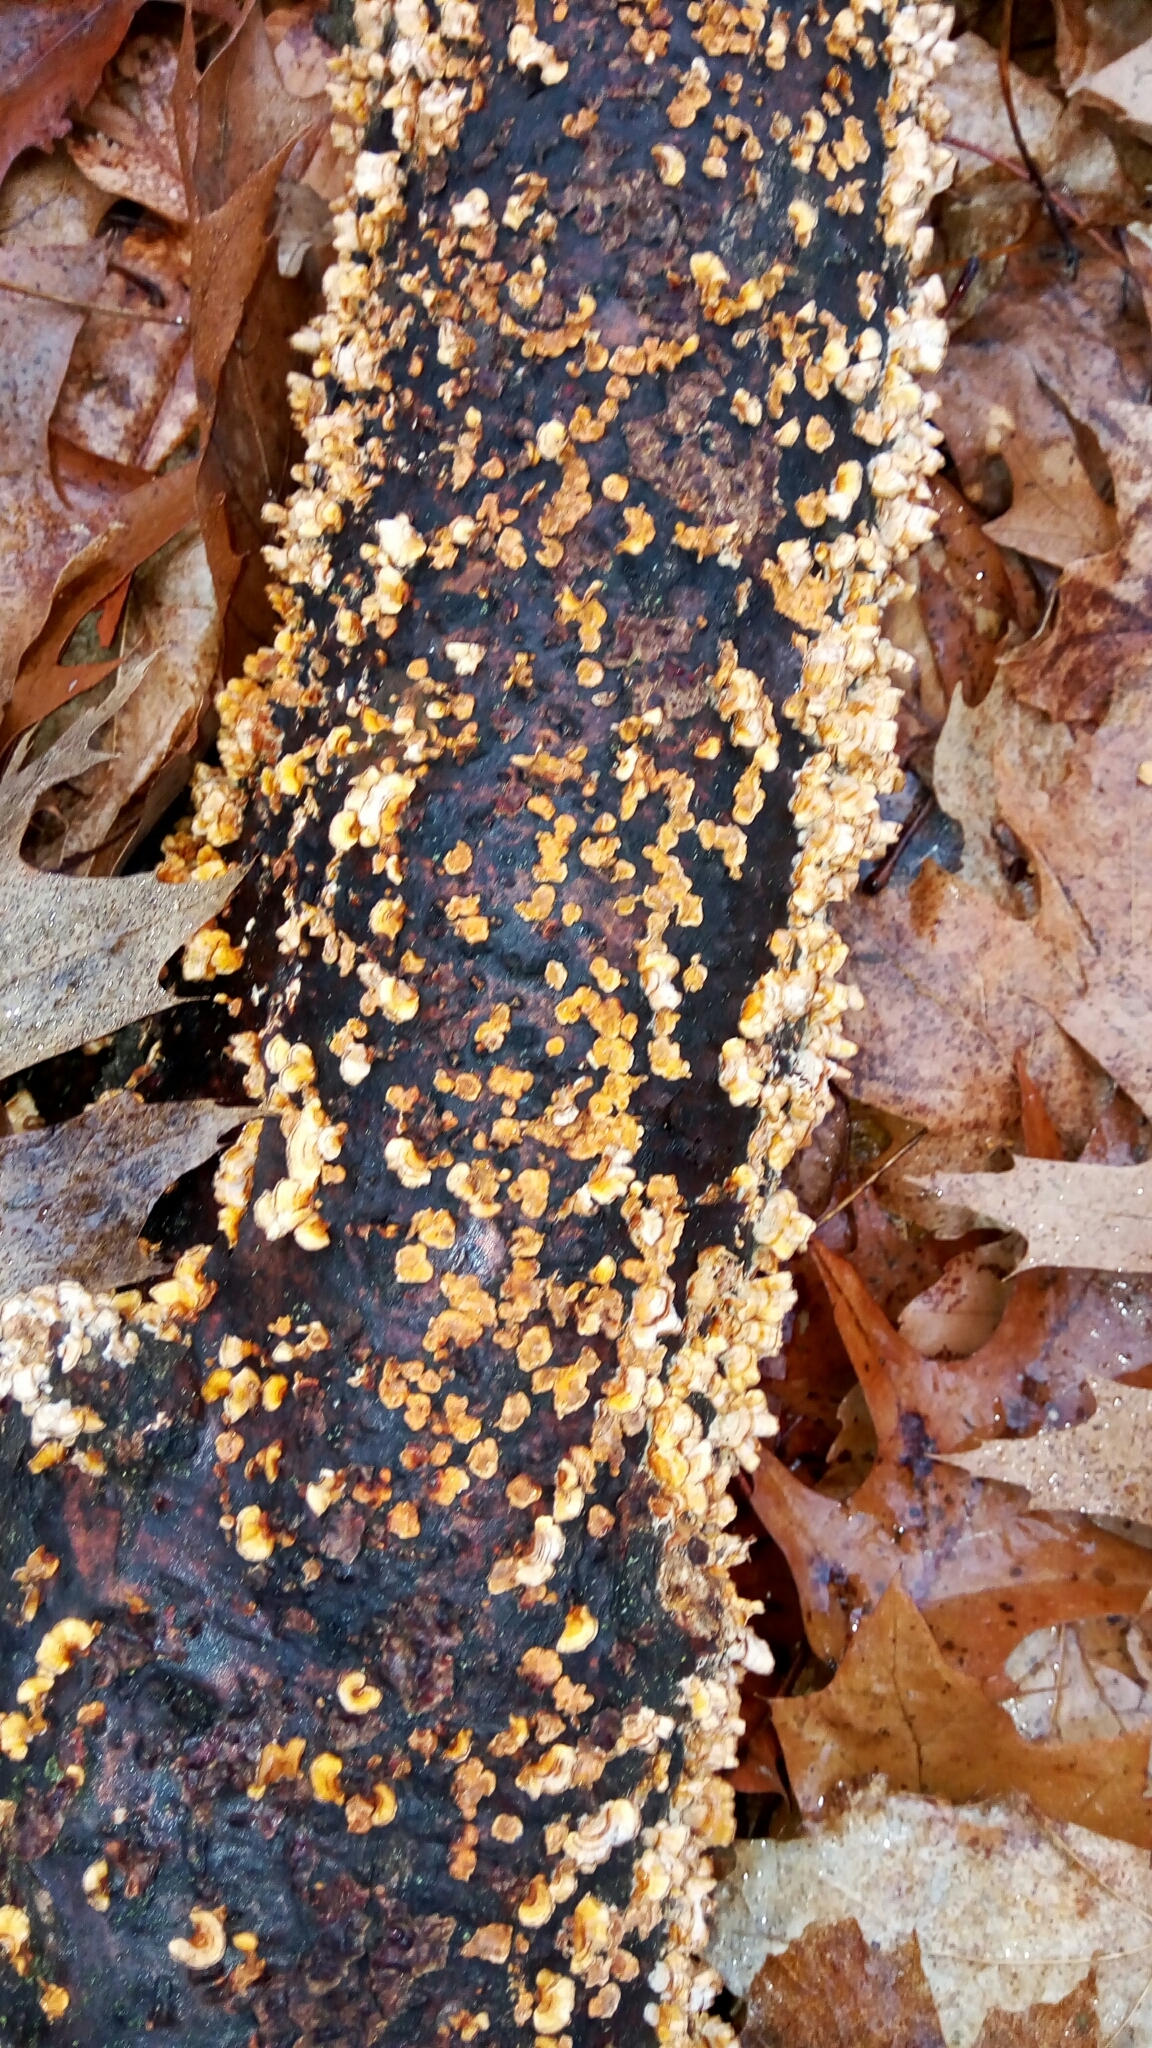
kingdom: Fungi
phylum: Basidiomycota
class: Agaricomycetes
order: Russulales
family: Stereaceae
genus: Stereum
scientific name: Stereum complicatum
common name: Crowded parchment
